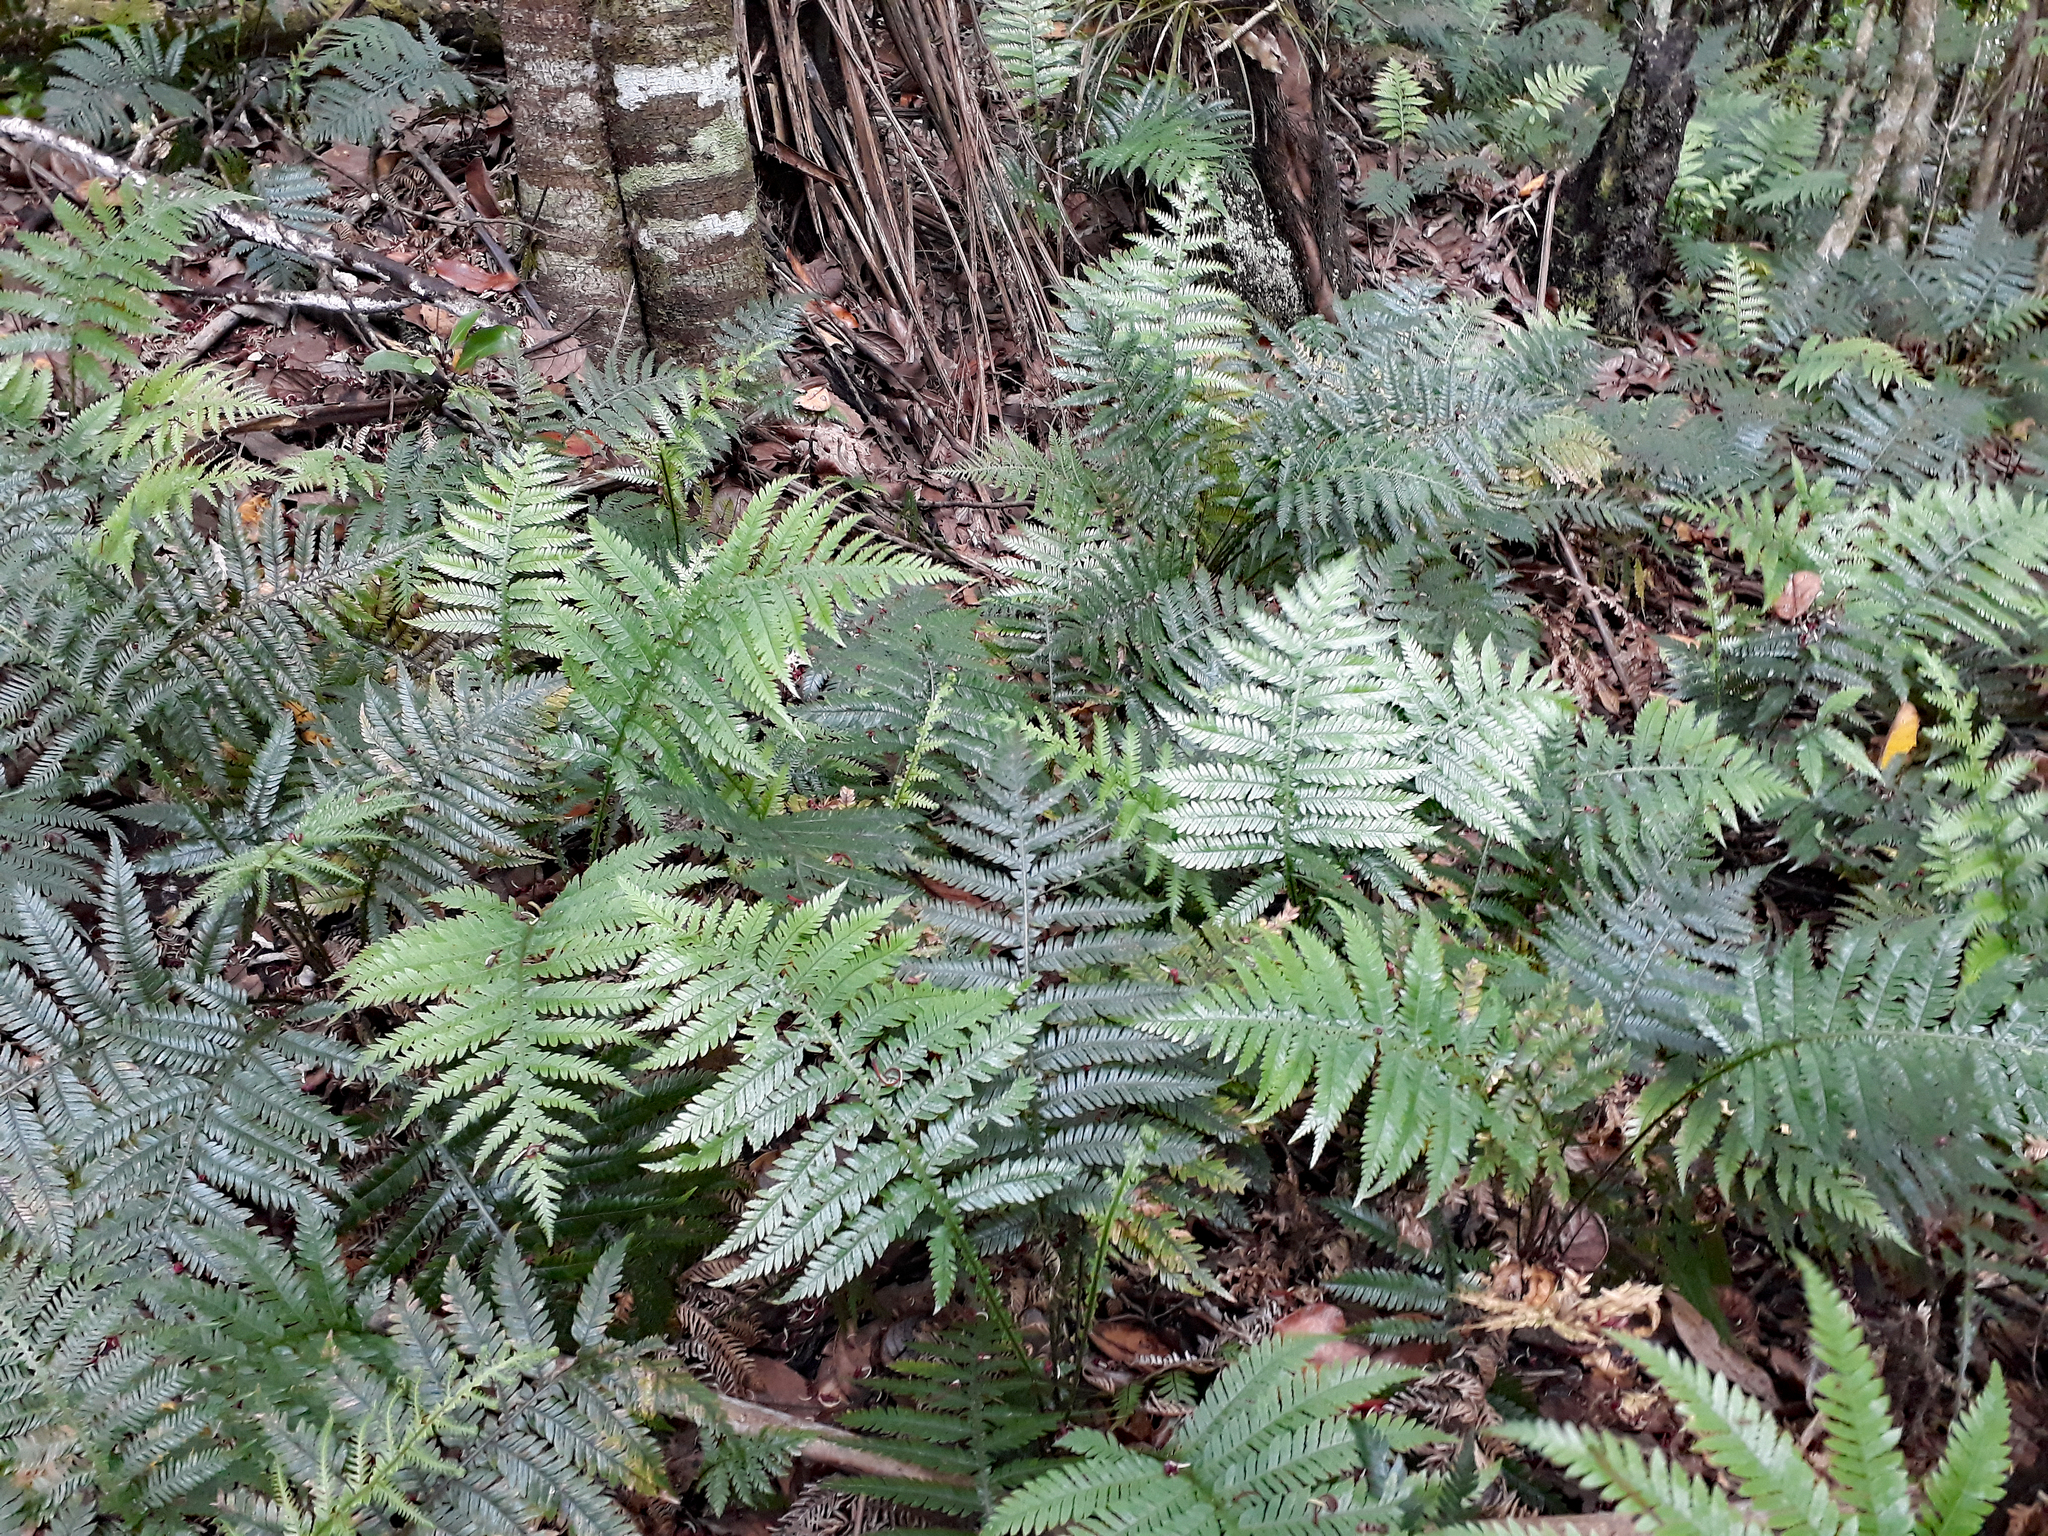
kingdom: Plantae
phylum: Tracheophyta
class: Polypodiopsida
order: Polypodiales
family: Blechnaceae
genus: Diploblechnum
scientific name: Diploblechnum fraseri
